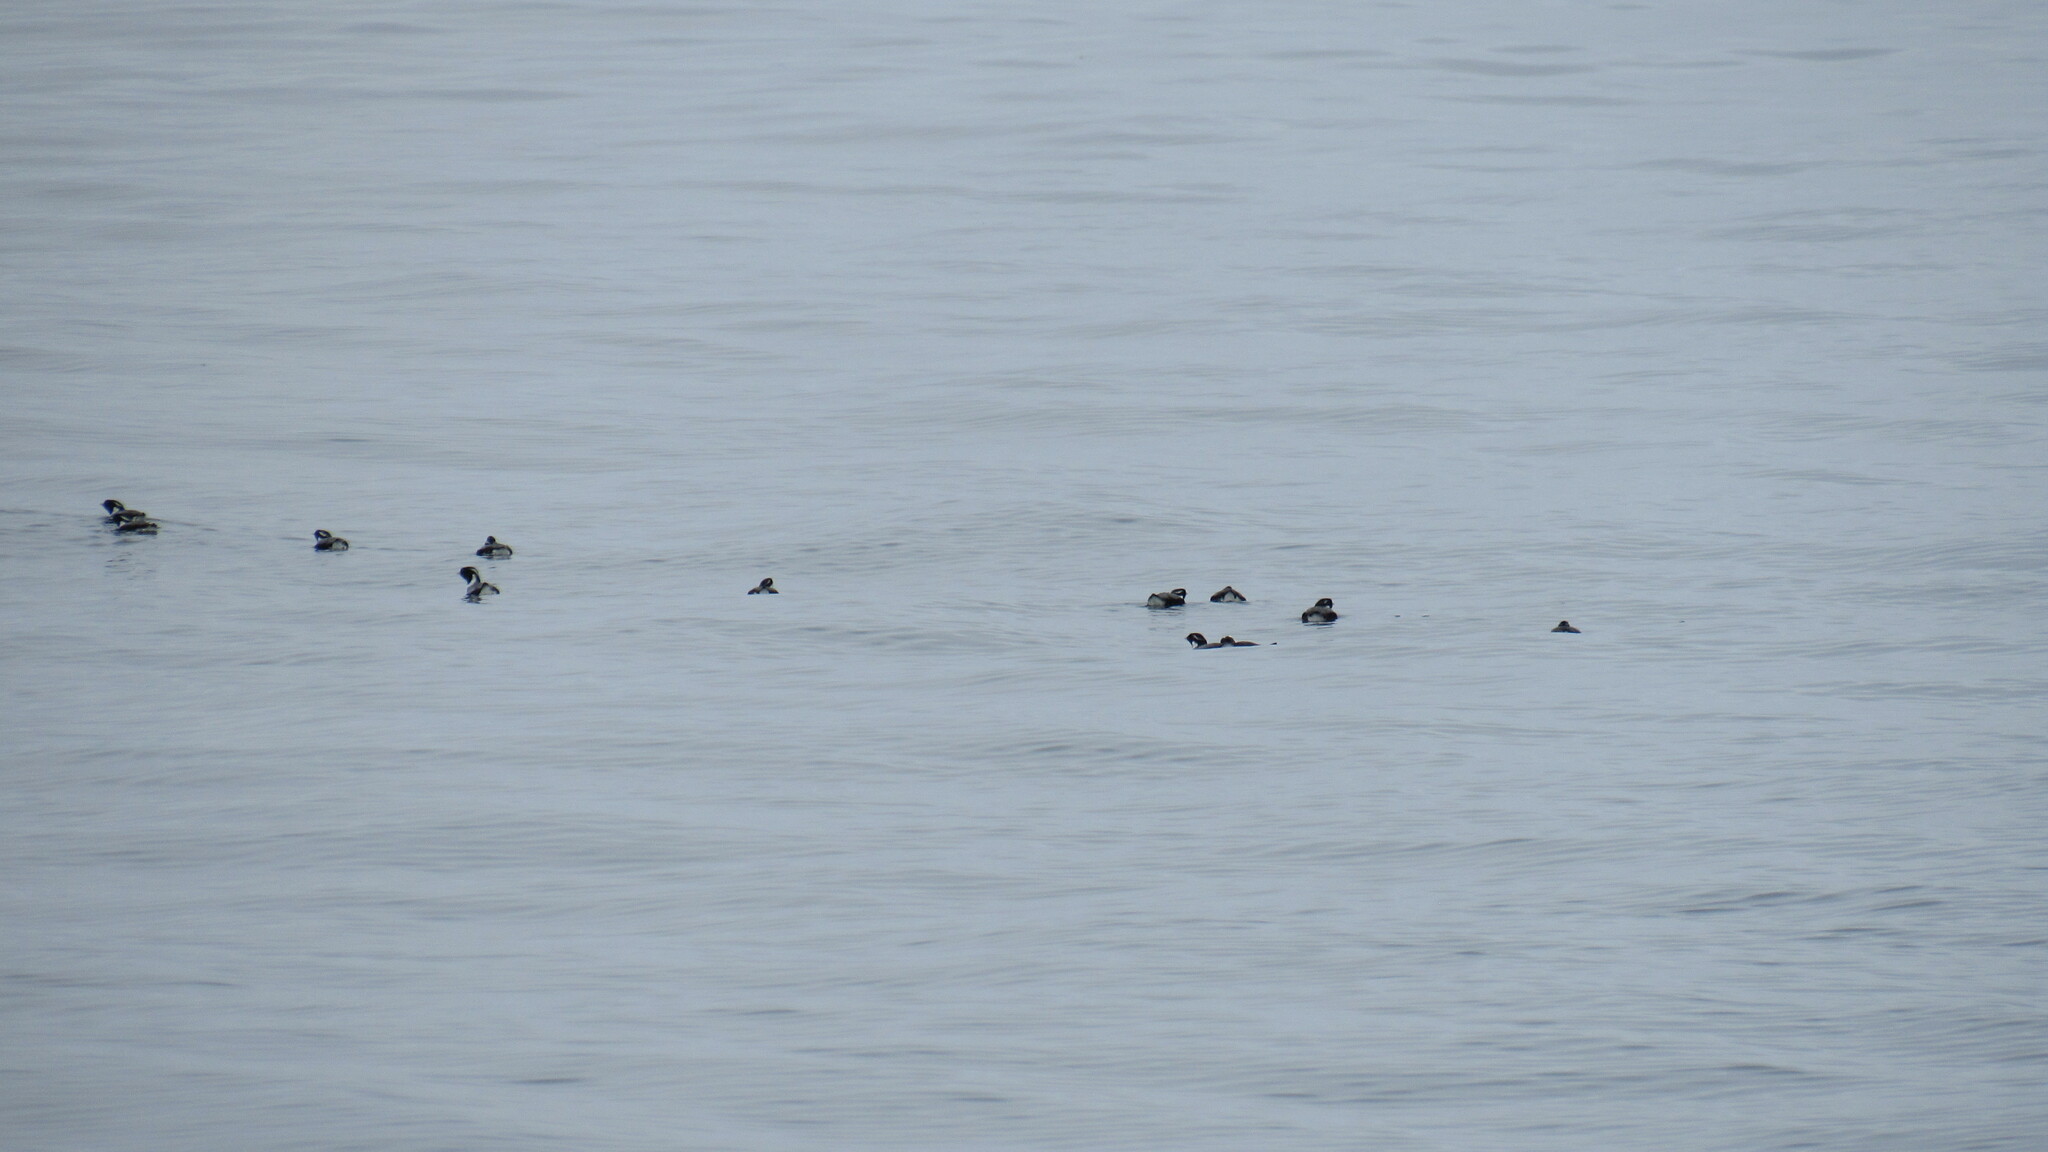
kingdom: Animalia
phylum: Chordata
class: Aves
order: Charadriiformes
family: Alcidae
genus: Synthliboramphus
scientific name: Synthliboramphus antiquus
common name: Ancient murrelet
